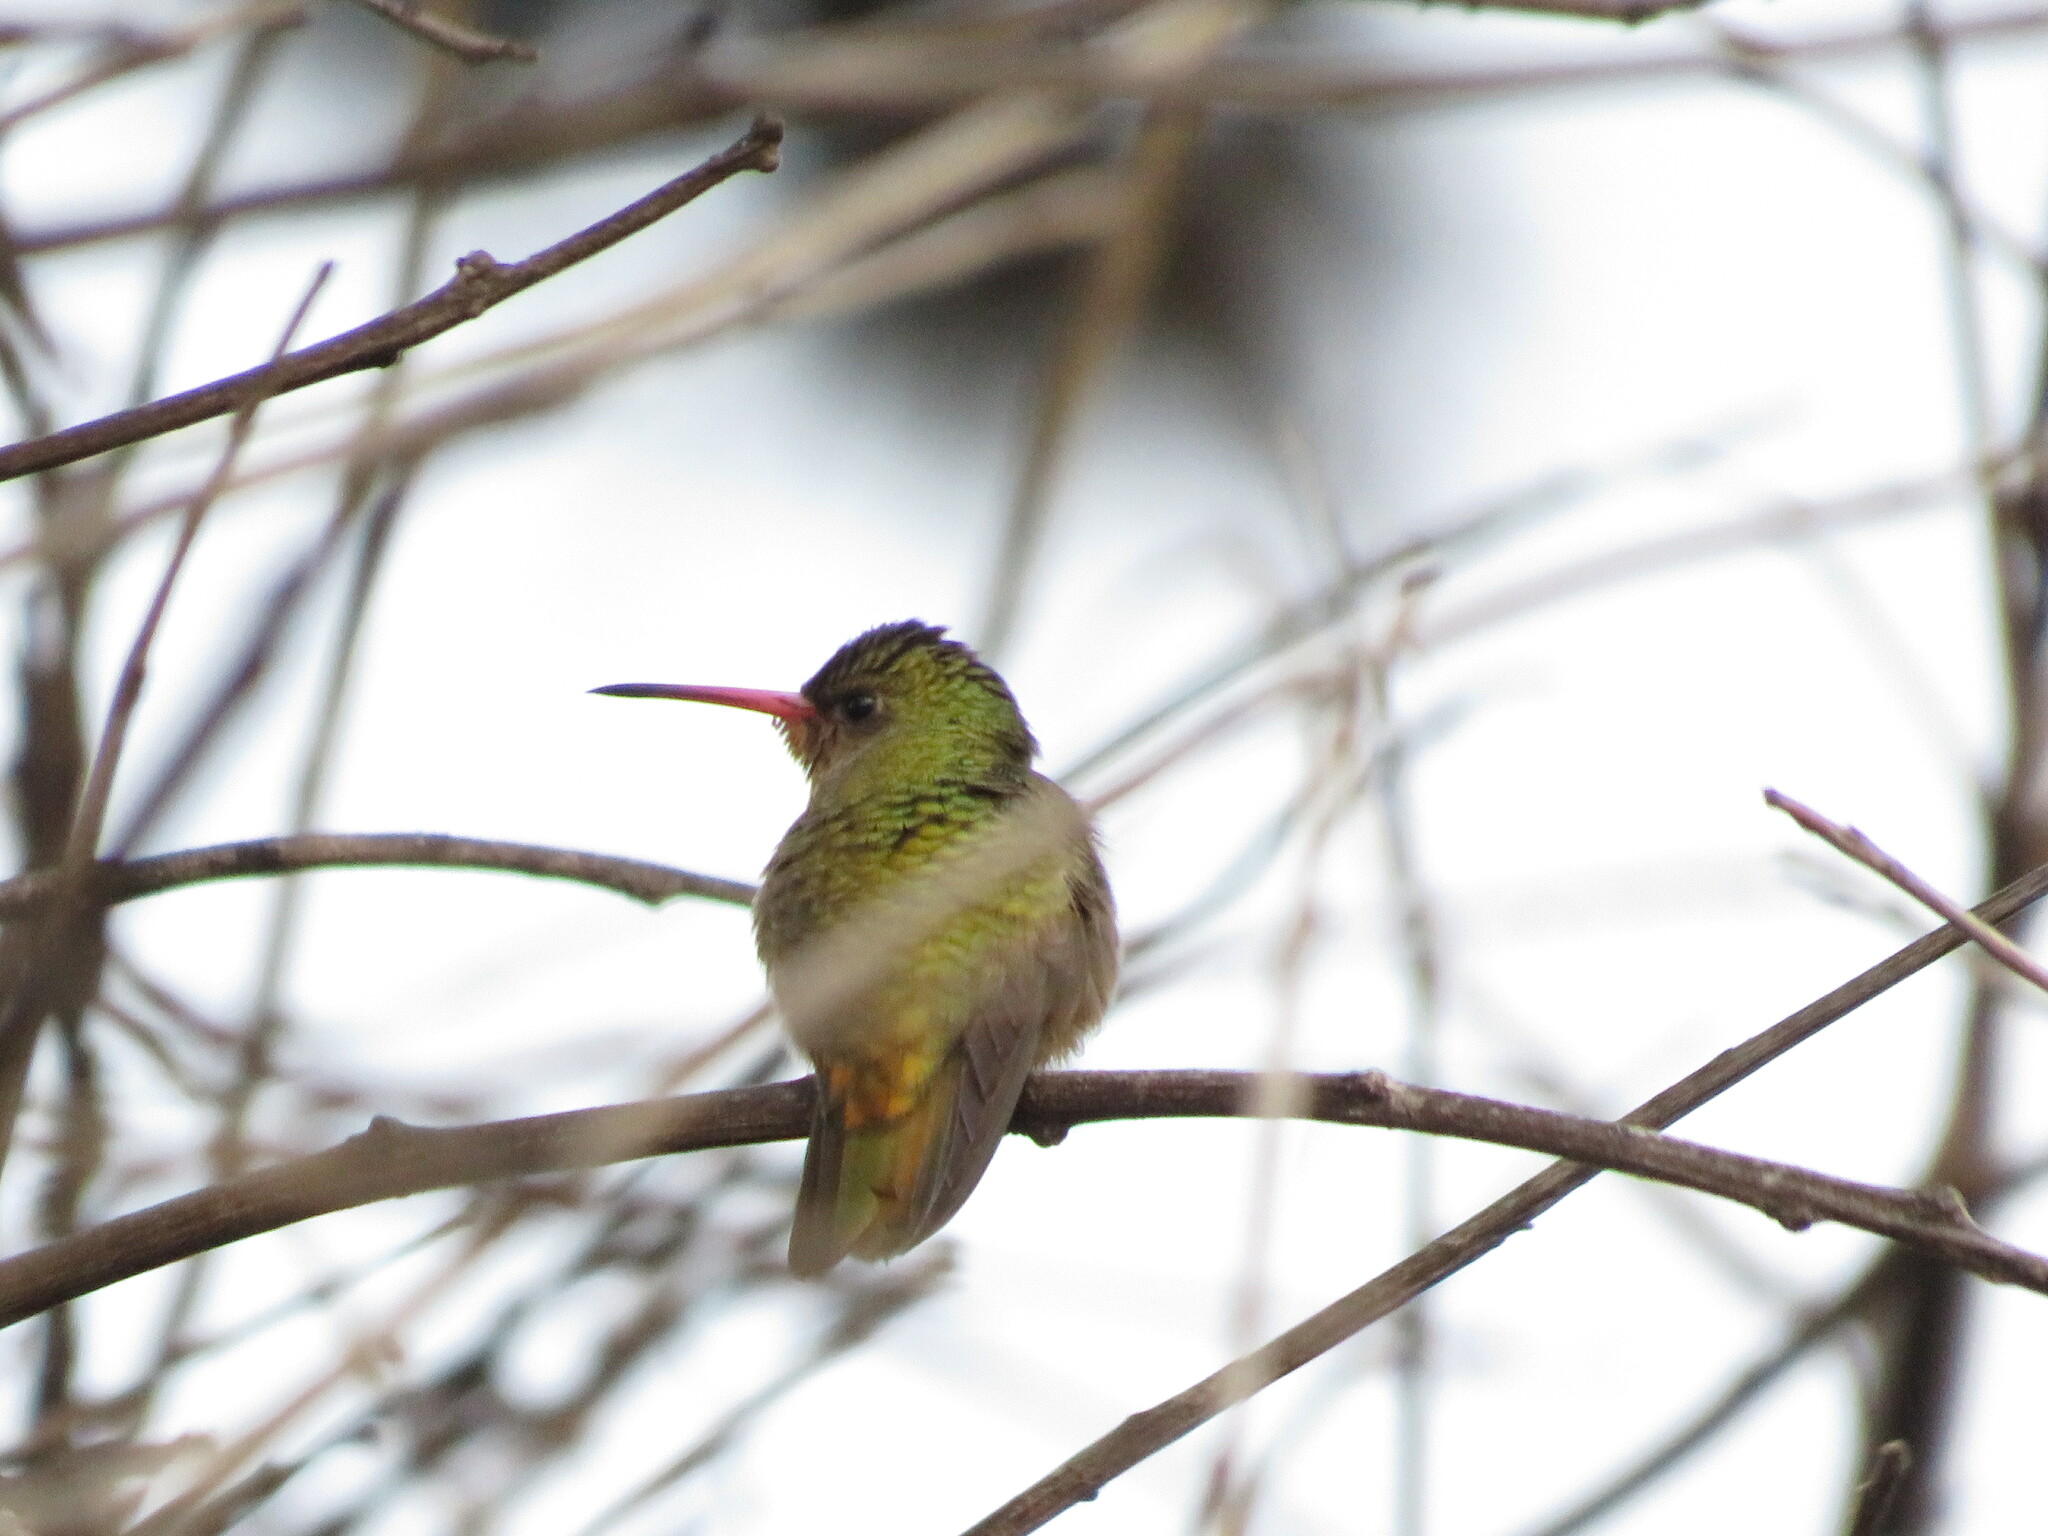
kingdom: Animalia
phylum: Chordata
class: Aves
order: Apodiformes
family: Trochilidae
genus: Hylocharis
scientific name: Hylocharis chrysura
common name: Gilded sapphire
